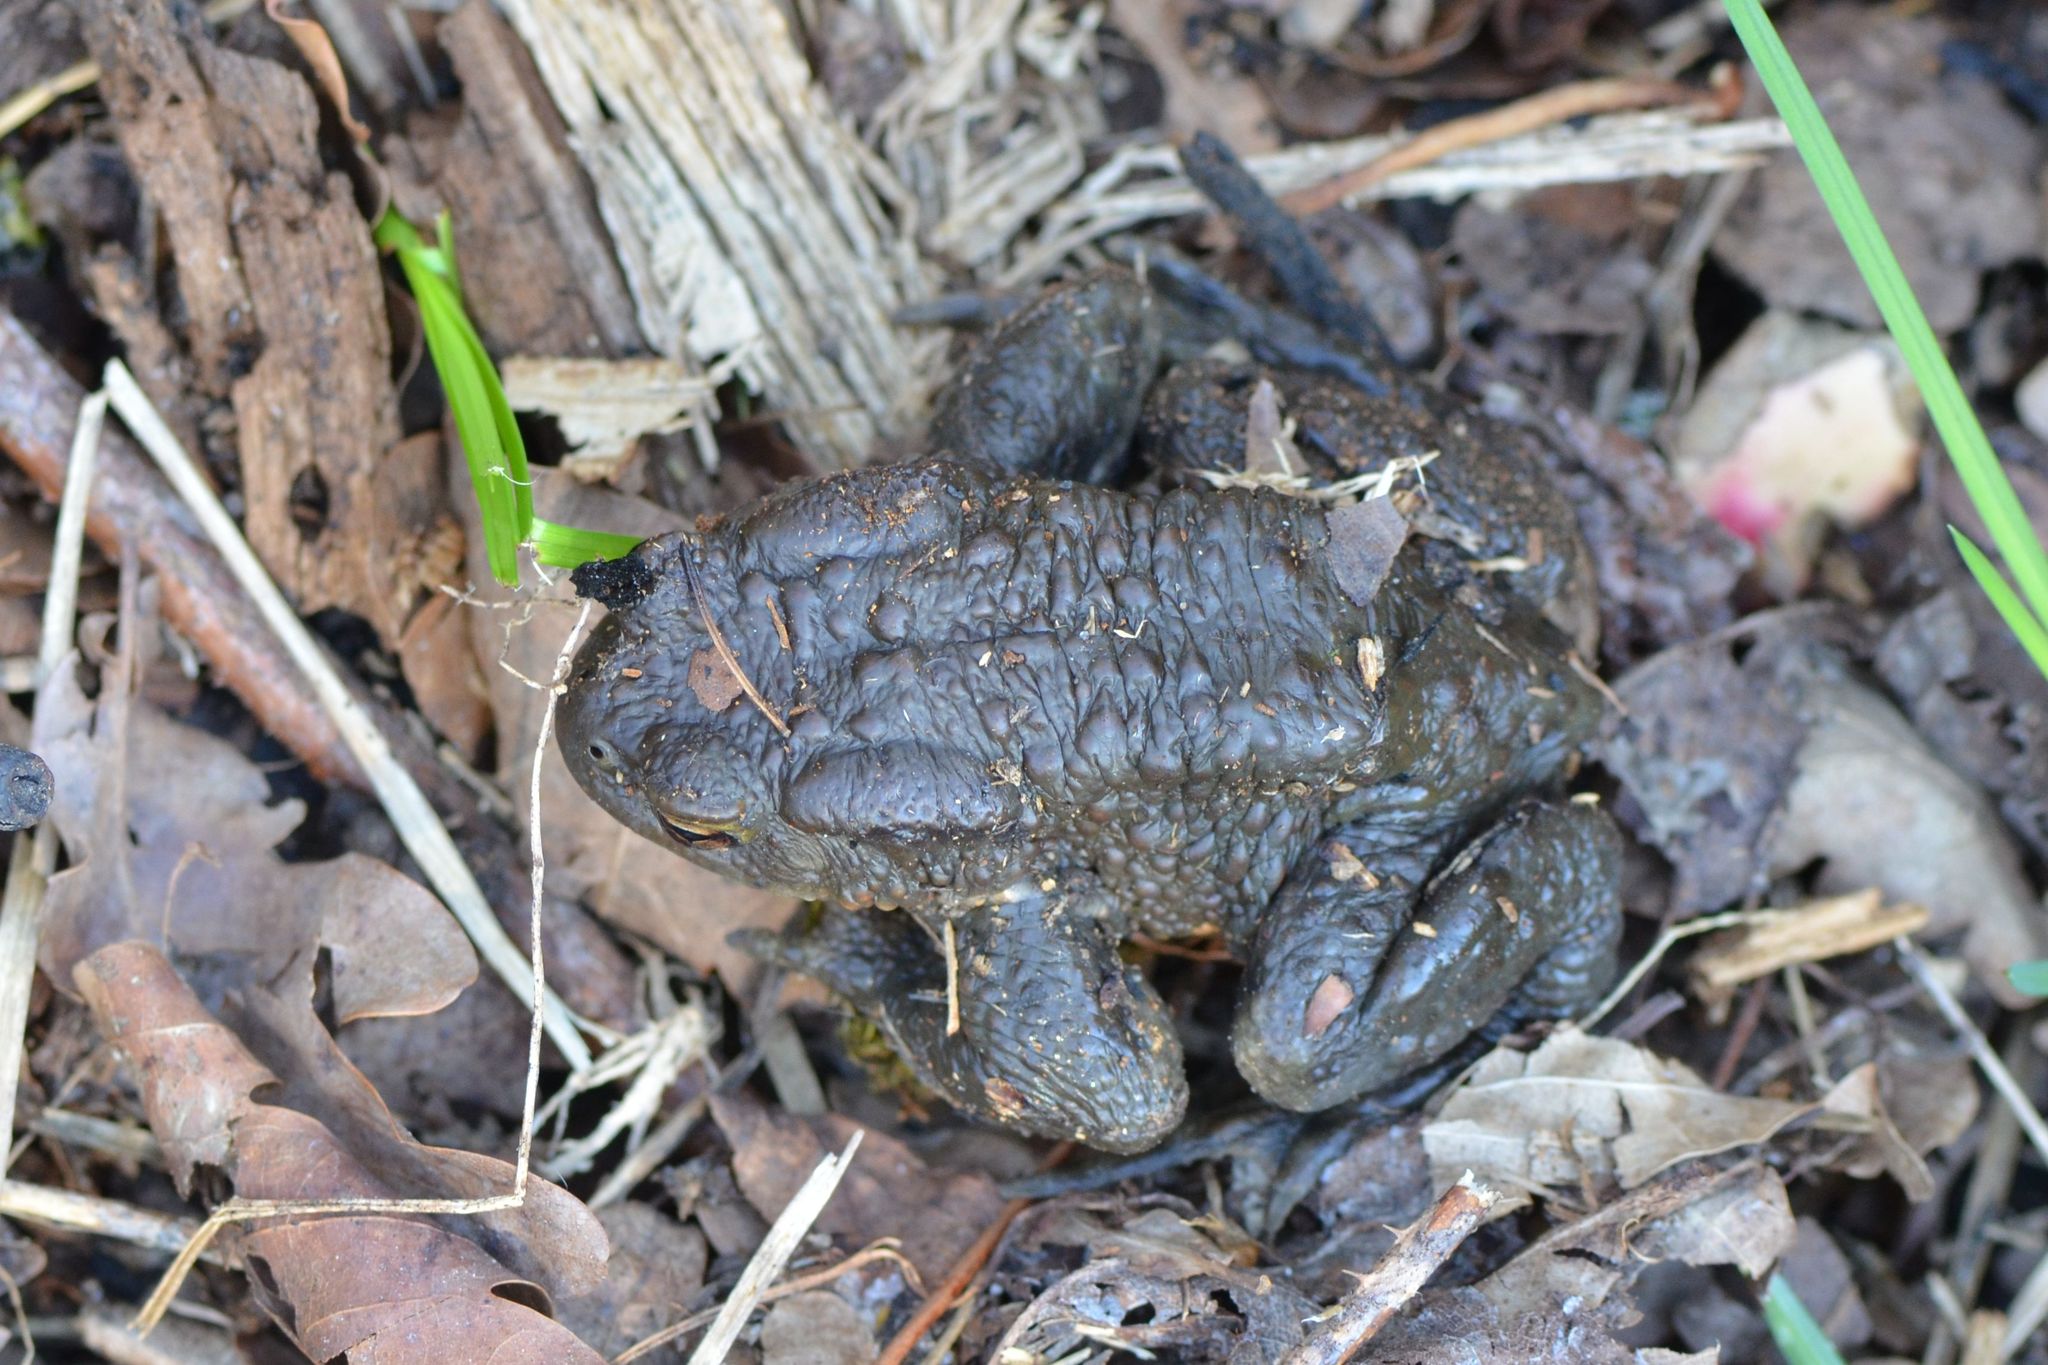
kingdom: Animalia
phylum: Chordata
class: Amphibia
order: Anura
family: Bufonidae
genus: Bufo
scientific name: Bufo bufo
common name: Common toad
